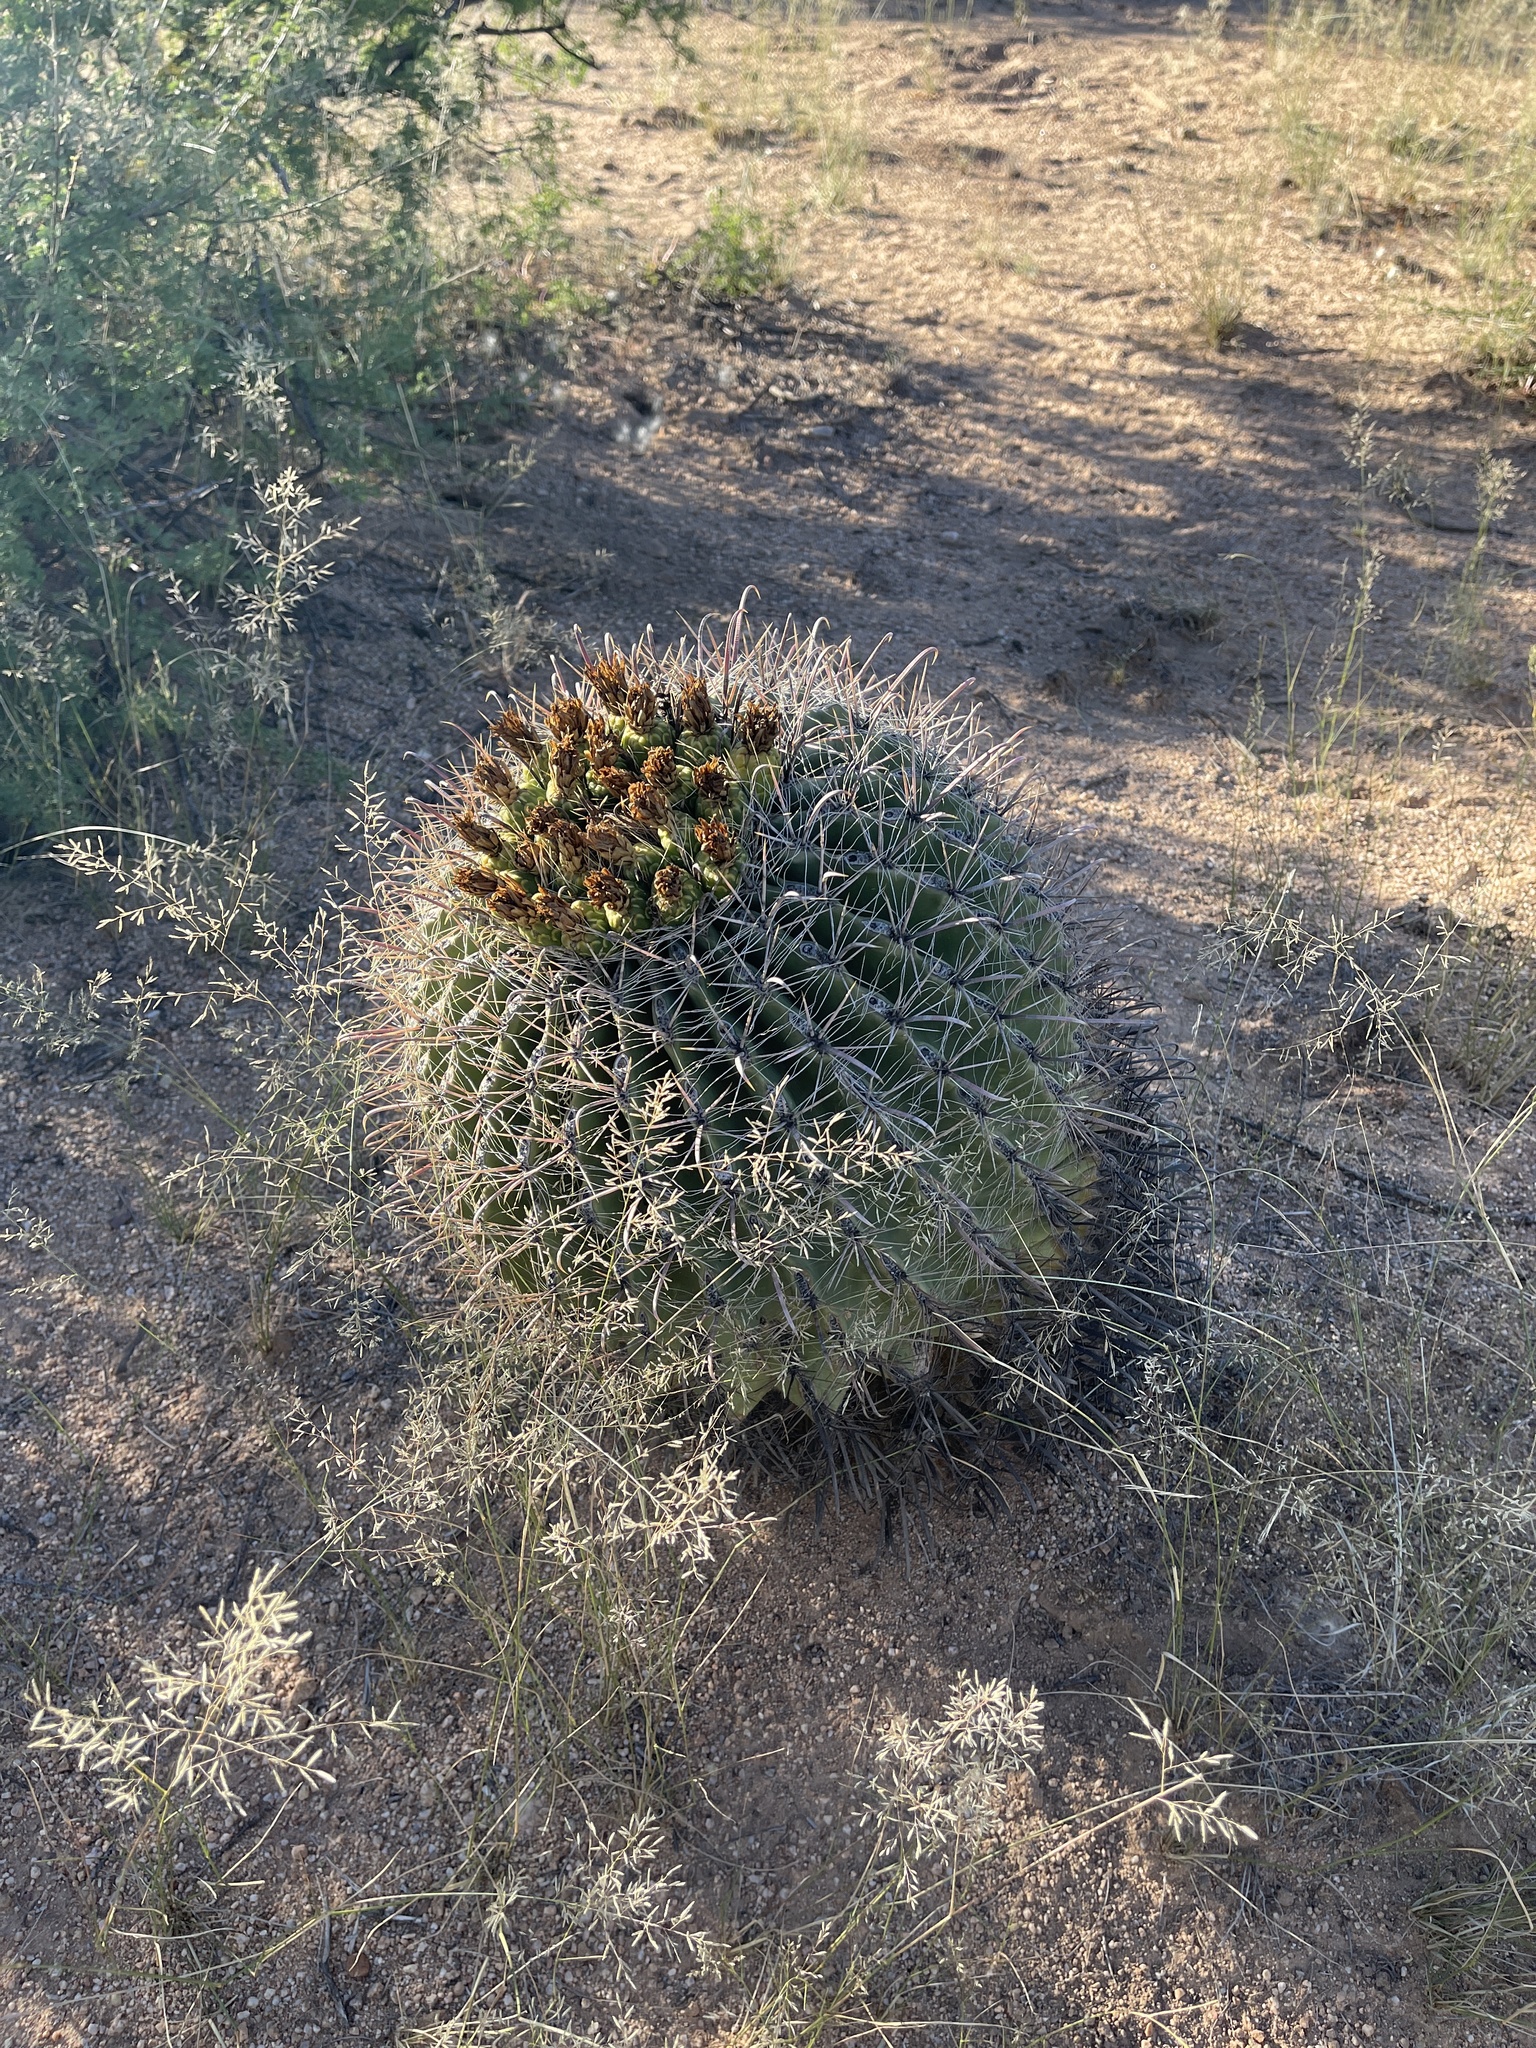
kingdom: Plantae
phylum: Tracheophyta
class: Magnoliopsida
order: Caryophyllales
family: Cactaceae
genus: Ferocactus
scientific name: Ferocactus wislizeni
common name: Candy barrel cactus
